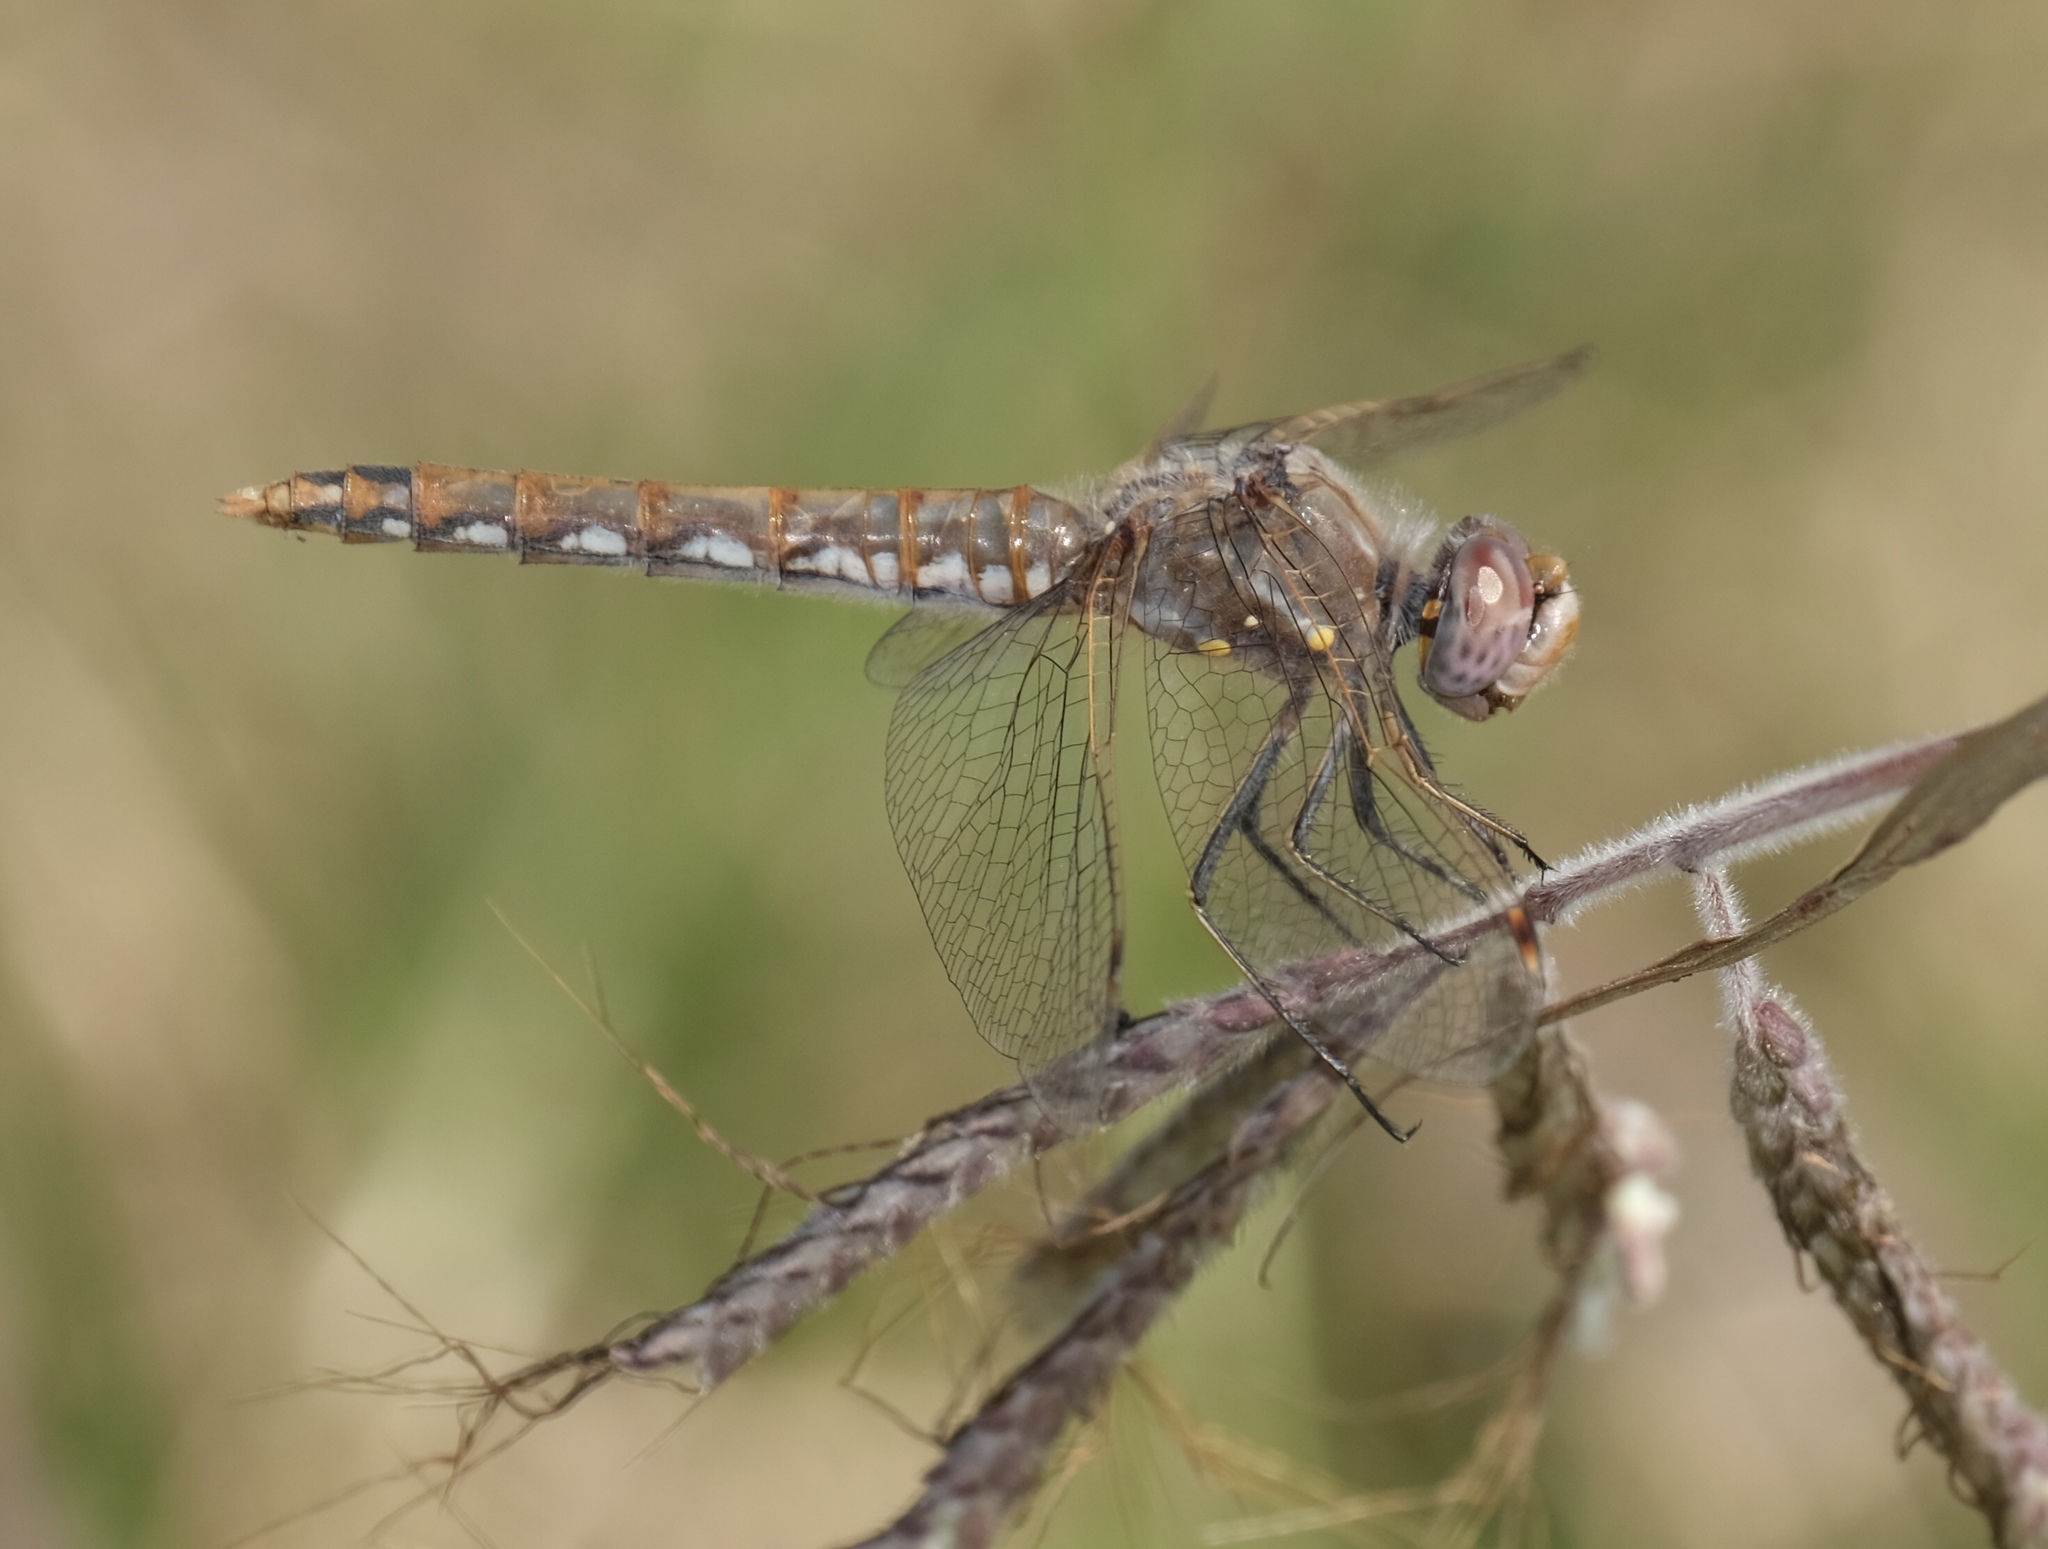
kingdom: Animalia
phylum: Arthropoda
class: Insecta
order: Odonata
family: Libellulidae
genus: Sympetrum
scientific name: Sympetrum corruptum
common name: Variegated meadowhawk
